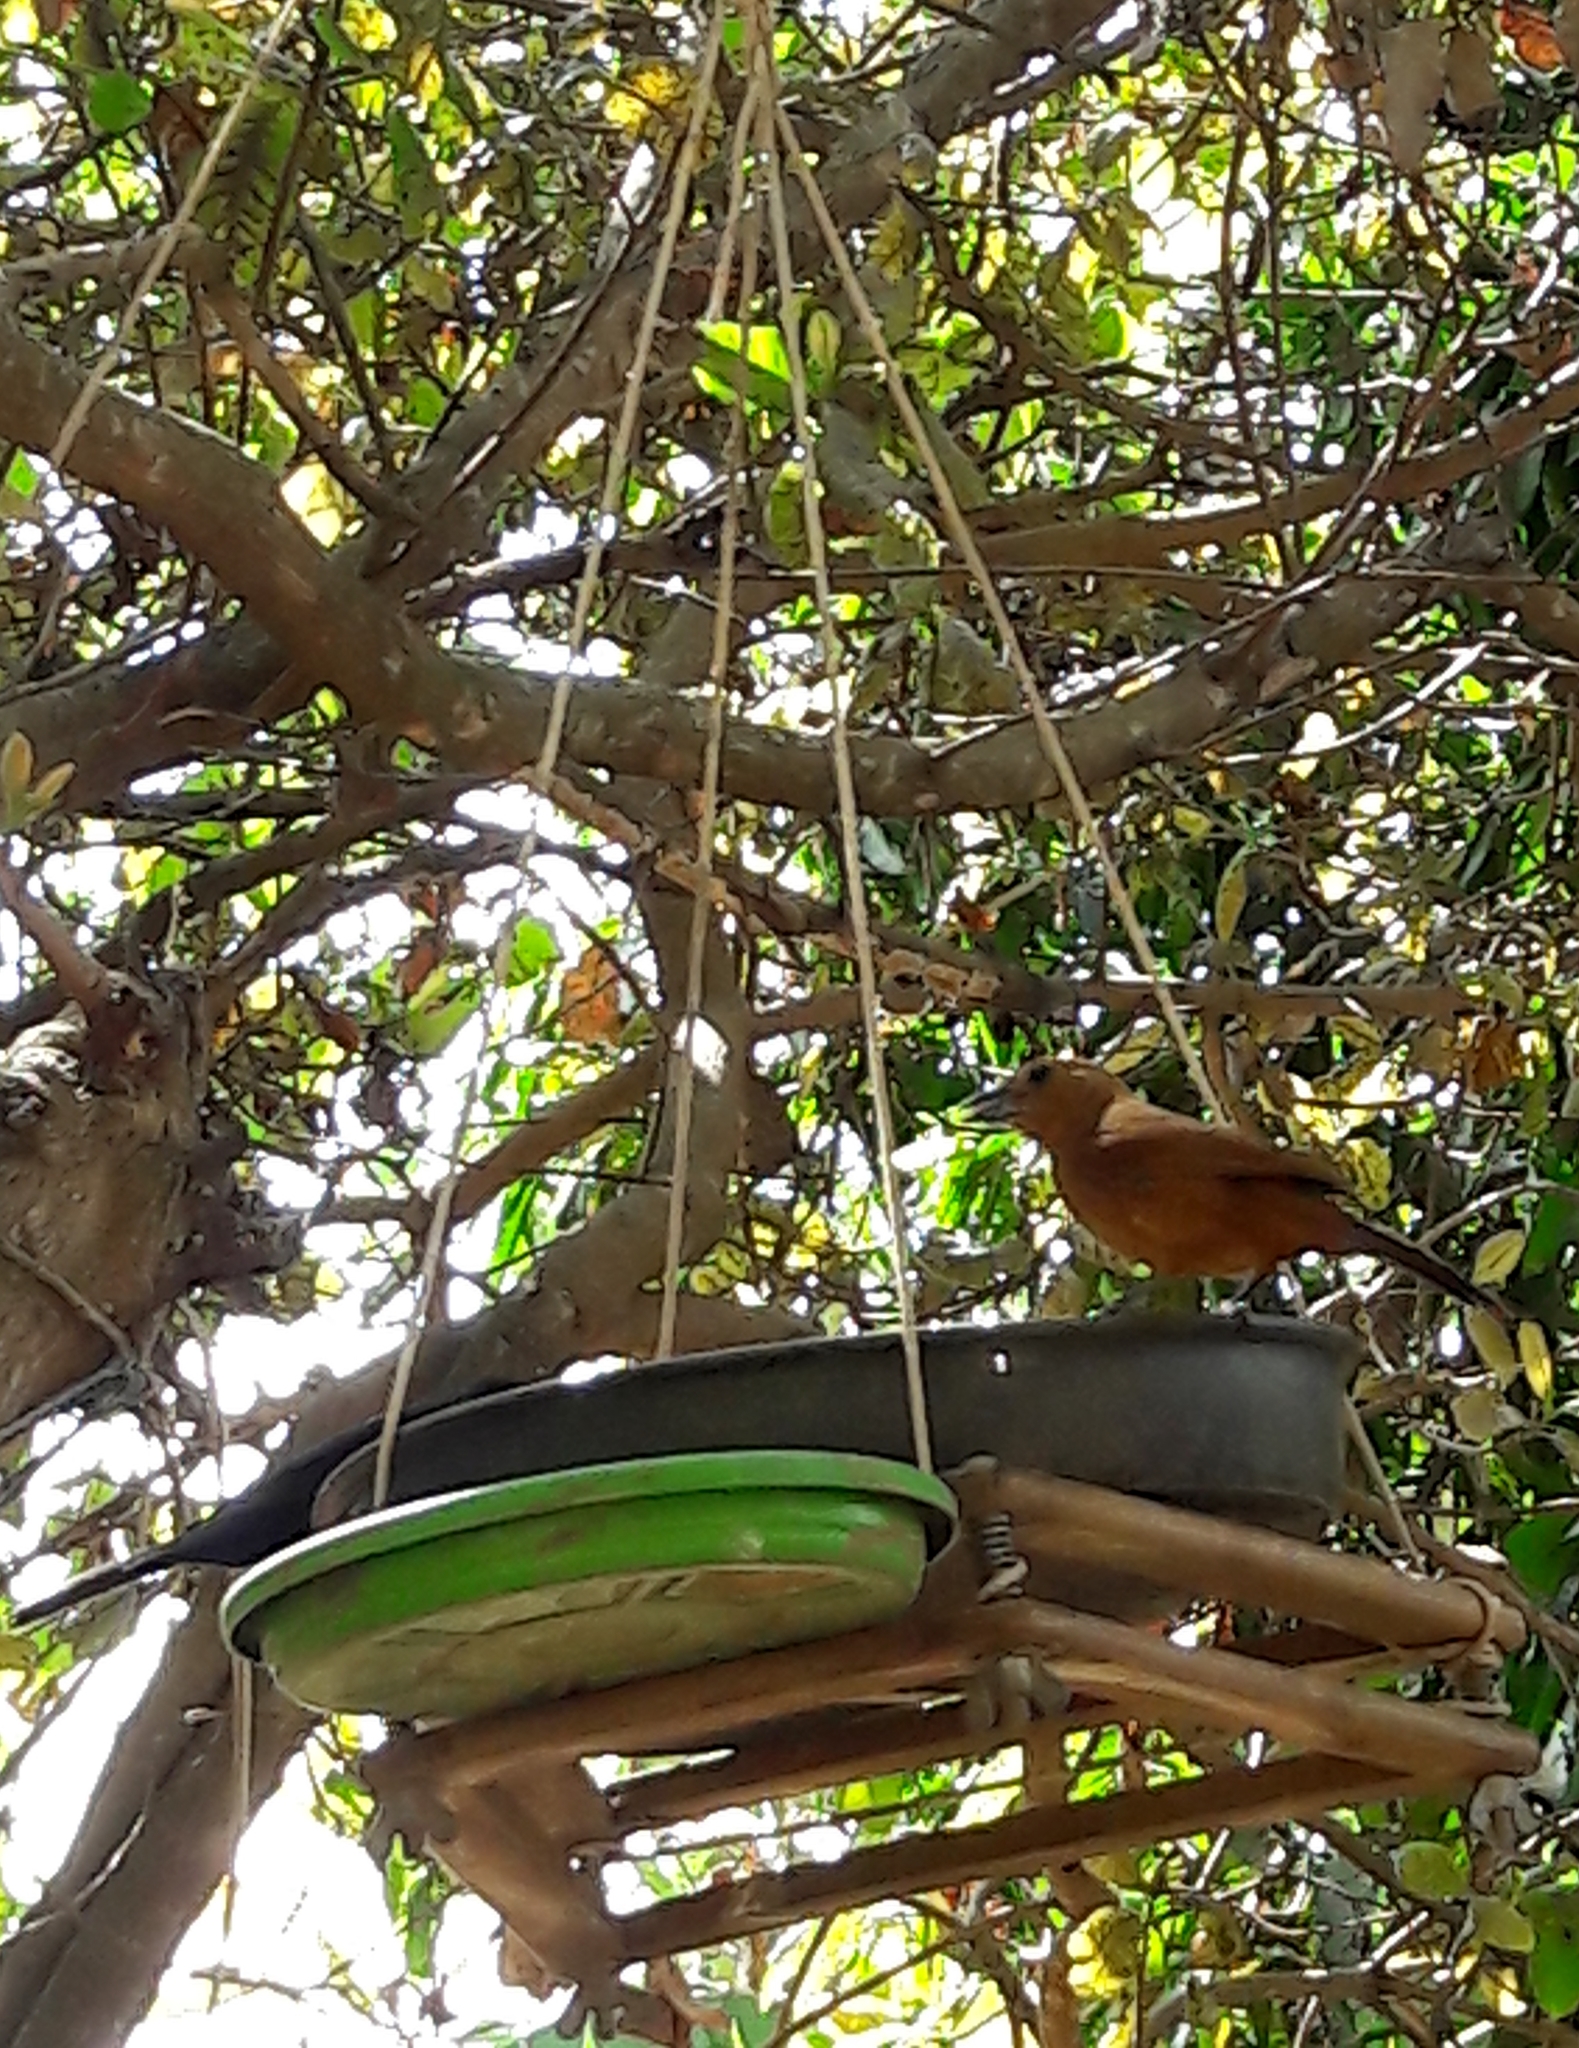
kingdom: Animalia
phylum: Chordata
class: Aves
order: Passeriformes
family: Thraupidae
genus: Tachyphonus
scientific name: Tachyphonus rufus
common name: White-lined tanager
